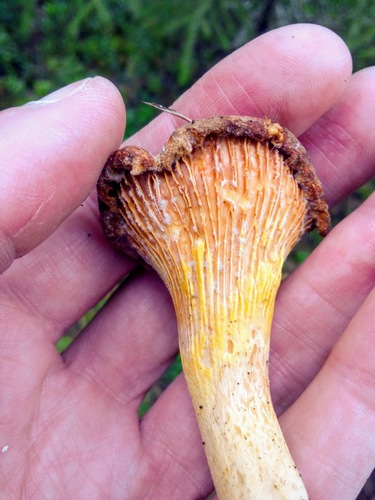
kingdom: Fungi
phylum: Basidiomycota
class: Agaricomycetes
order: Cantharellales
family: Hydnaceae
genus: Cantharellus
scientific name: Cantharellus cibarius
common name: Chanterelle
